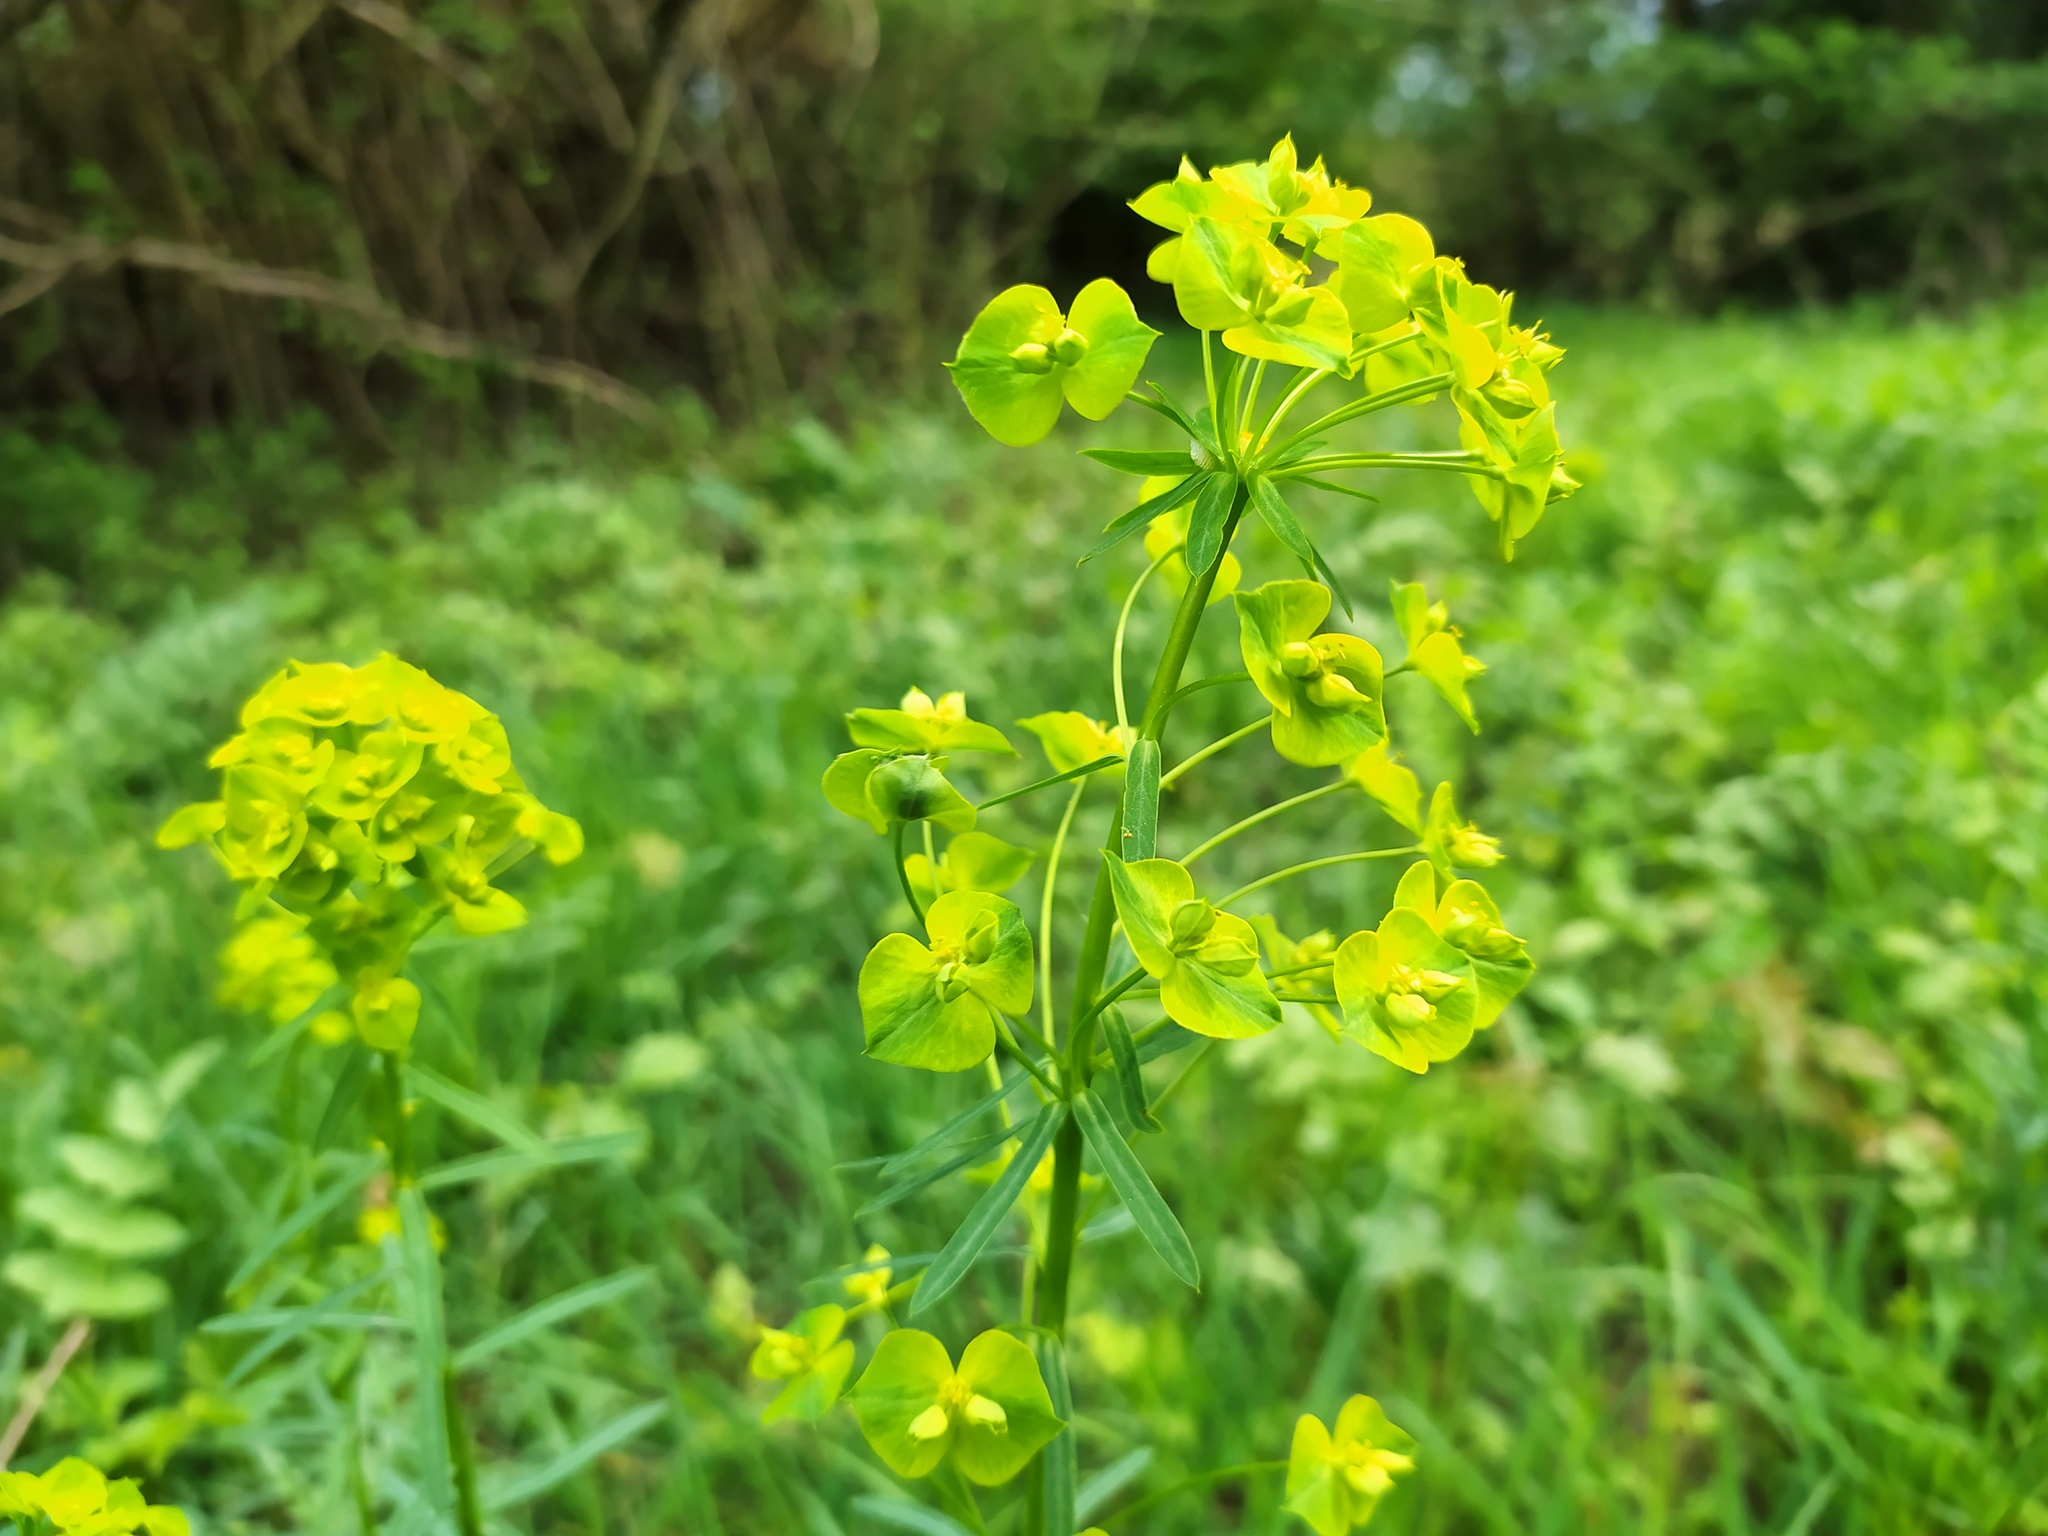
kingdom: Plantae
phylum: Tracheophyta
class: Magnoliopsida
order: Malpighiales
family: Euphorbiaceae
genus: Euphorbia
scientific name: Euphorbia esula
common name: Leafy spurge
